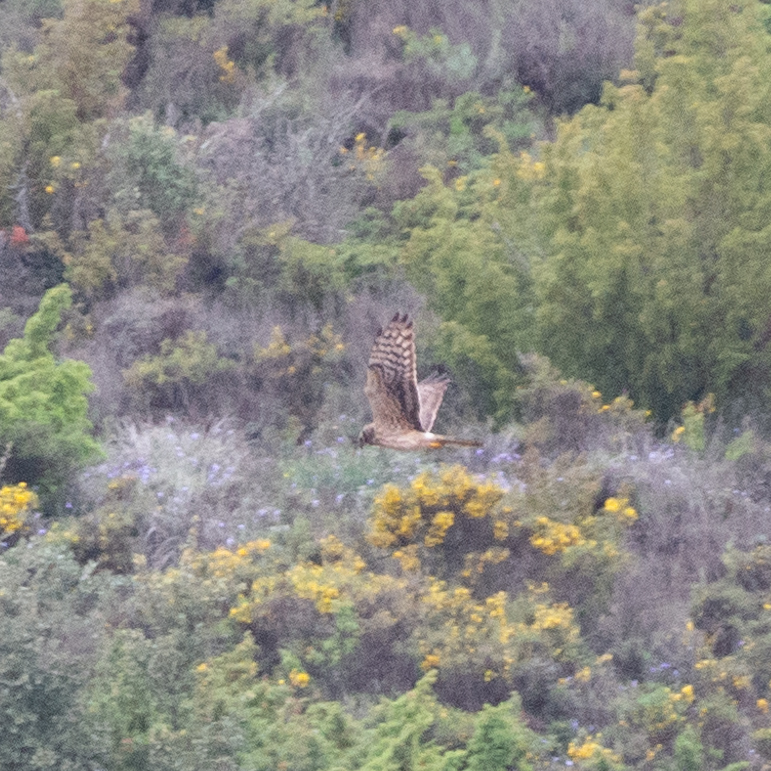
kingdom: Animalia
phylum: Chordata
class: Aves
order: Accipitriformes
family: Accipitridae
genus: Circus
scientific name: Circus pygargus
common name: Montagu's harrier
